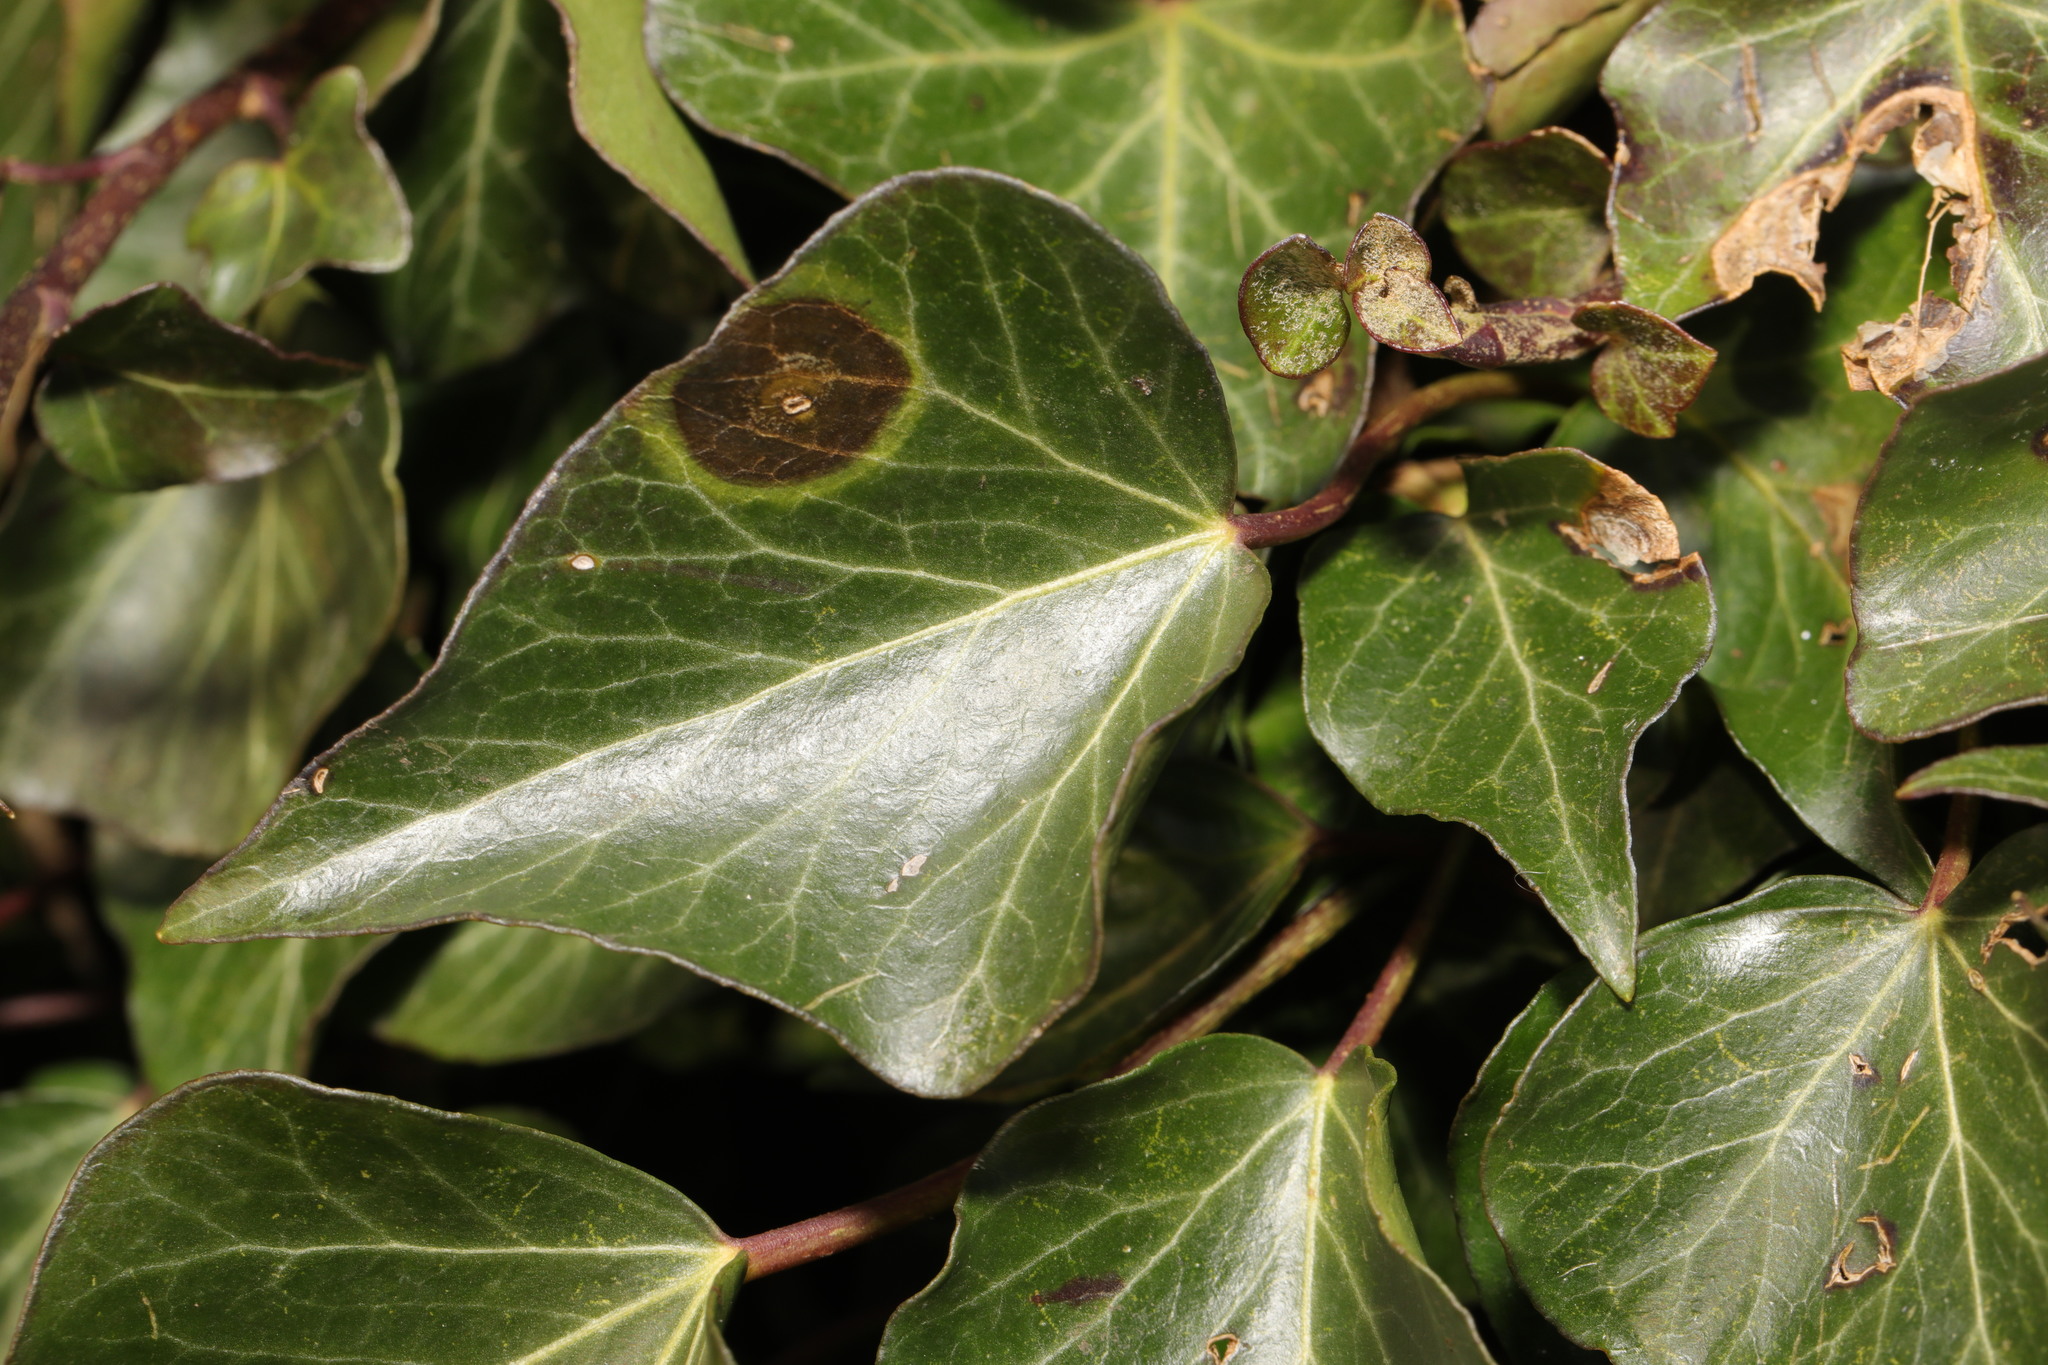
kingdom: Plantae
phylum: Tracheophyta
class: Magnoliopsida
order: Apiales
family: Araliaceae
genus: Hedera
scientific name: Hedera helix
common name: Ivy
